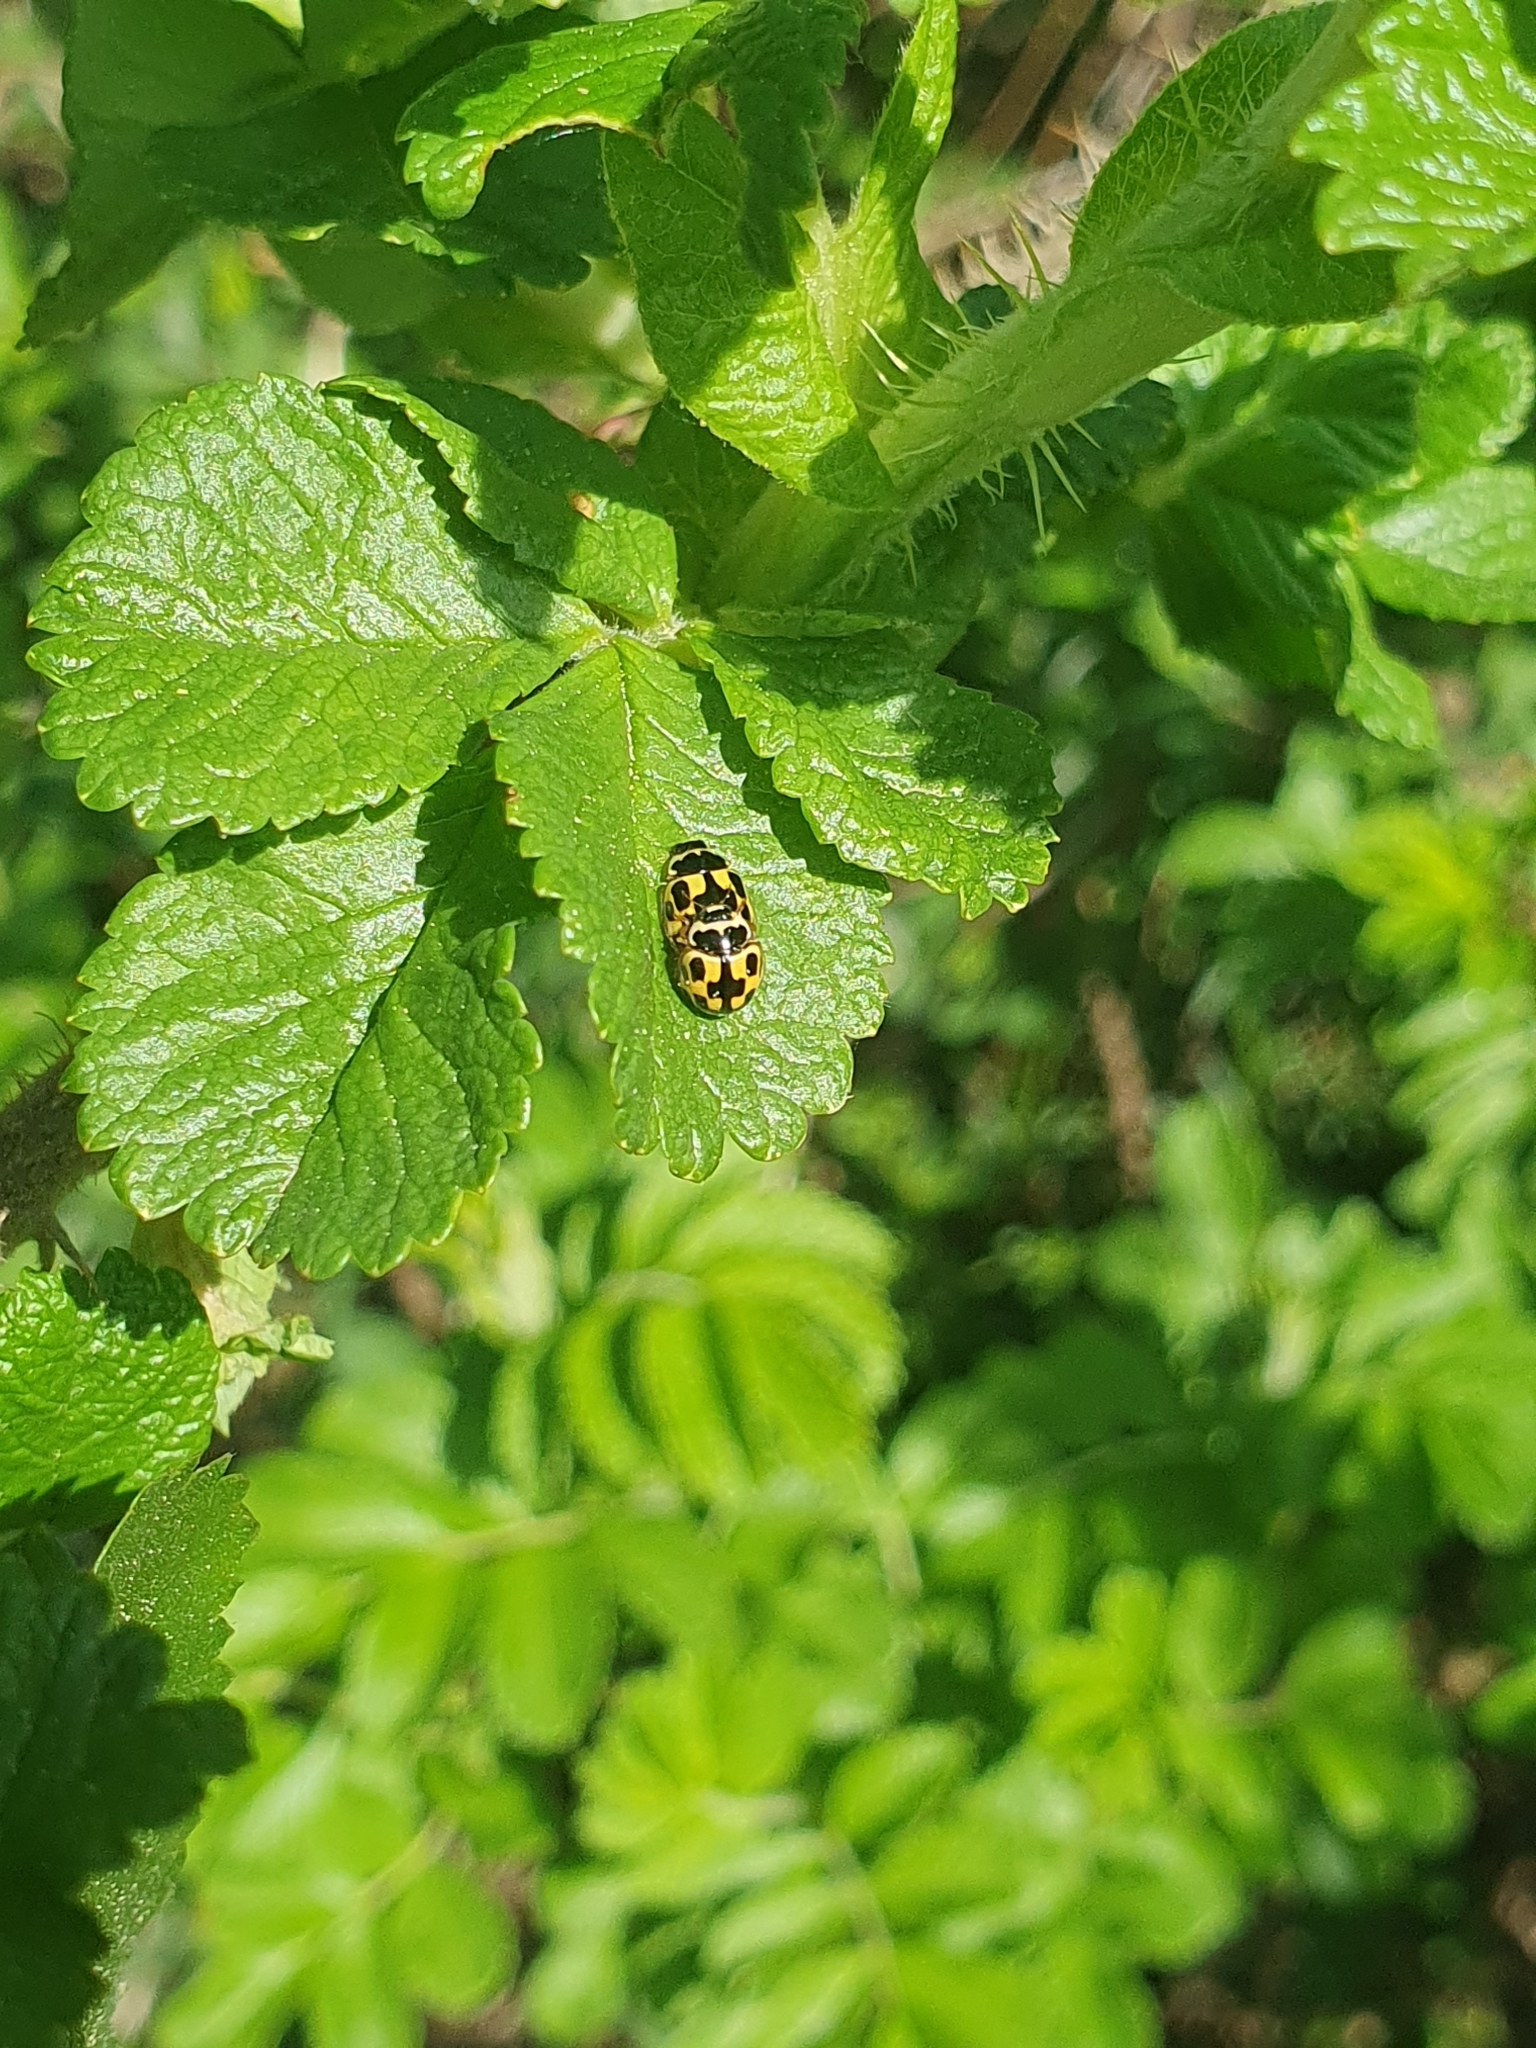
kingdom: Animalia
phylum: Arthropoda
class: Insecta
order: Coleoptera
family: Coccinellidae
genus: Propylaea
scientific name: Propylaea quatuordecimpunctata
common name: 14-spotted ladybird beetle
